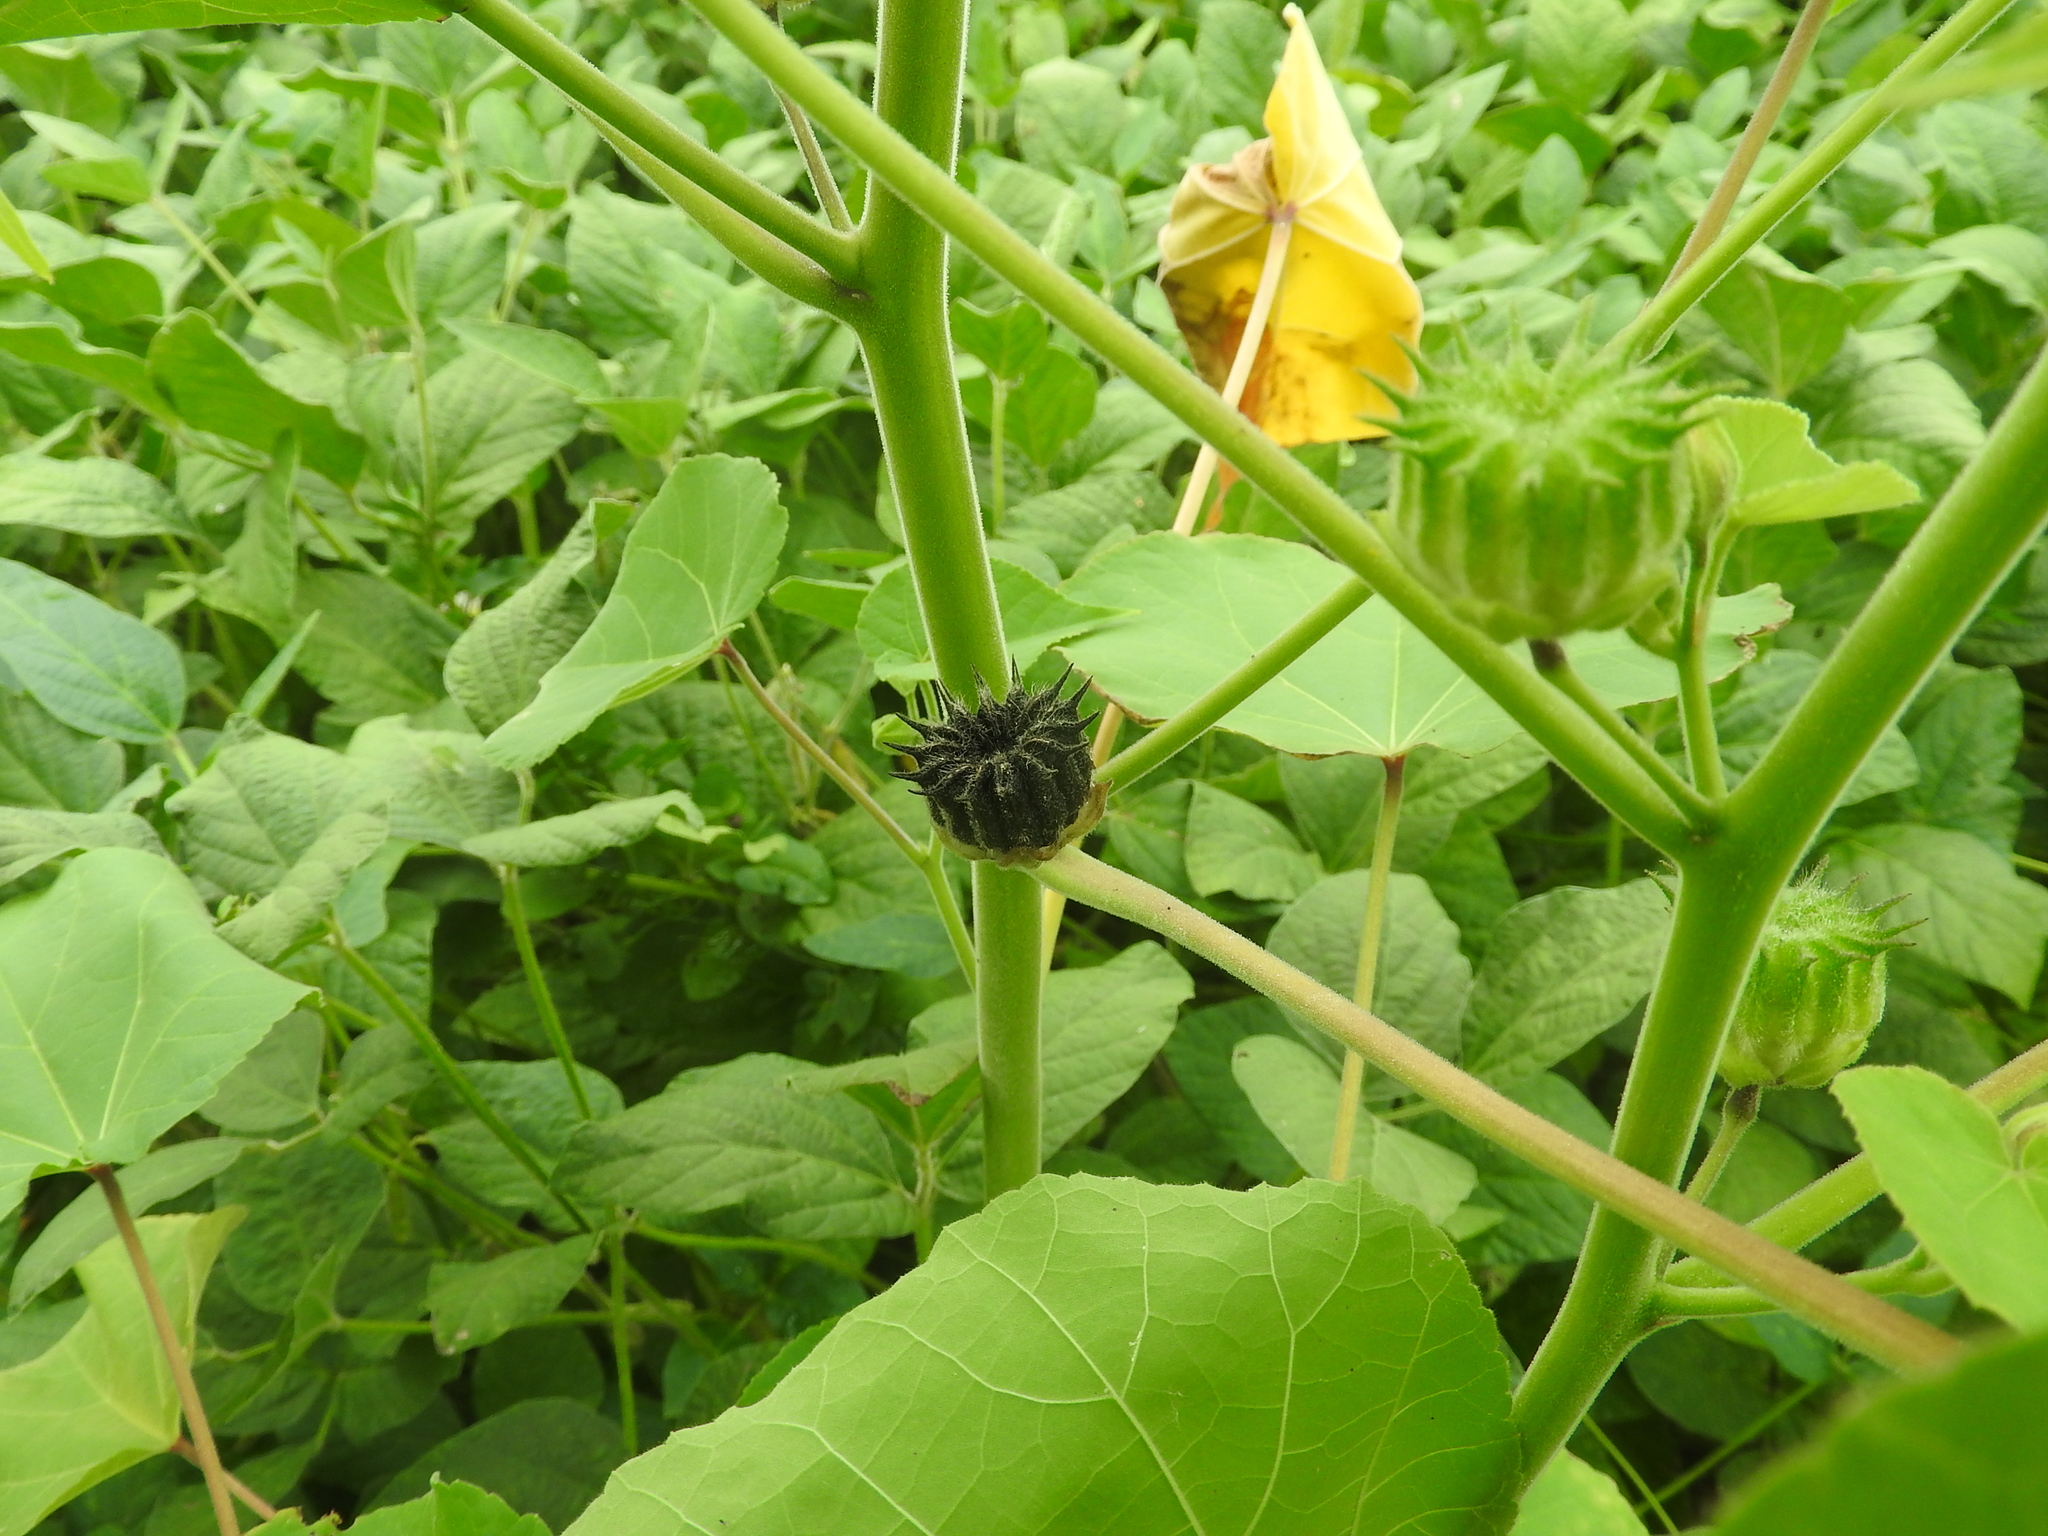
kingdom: Plantae
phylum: Tracheophyta
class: Magnoliopsida
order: Malvales
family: Malvaceae
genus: Abutilon
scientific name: Abutilon theophrasti
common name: Velvetleaf
